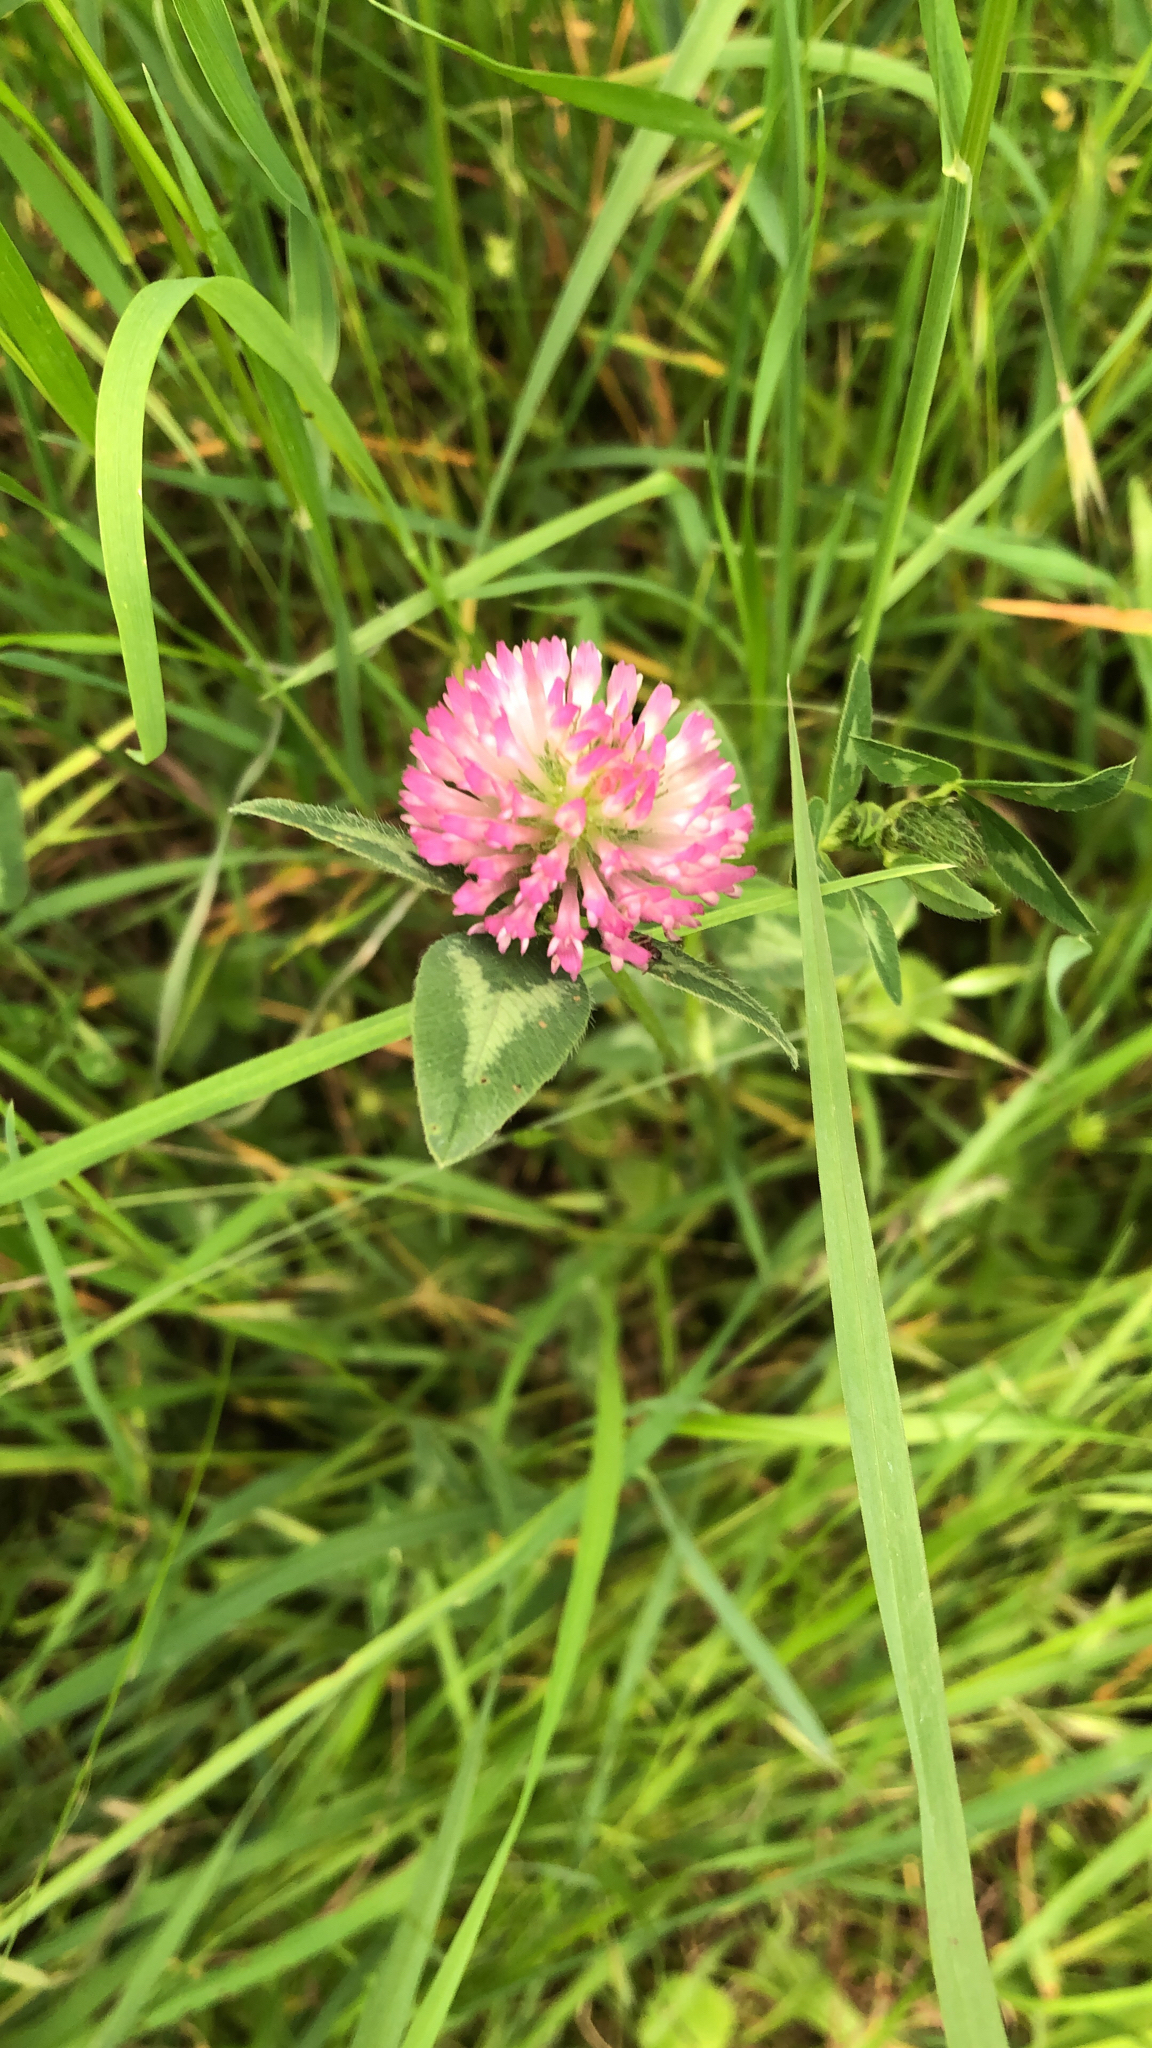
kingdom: Plantae
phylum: Tracheophyta
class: Magnoliopsida
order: Fabales
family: Fabaceae
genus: Trifolium
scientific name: Trifolium pratense
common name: Red clover
